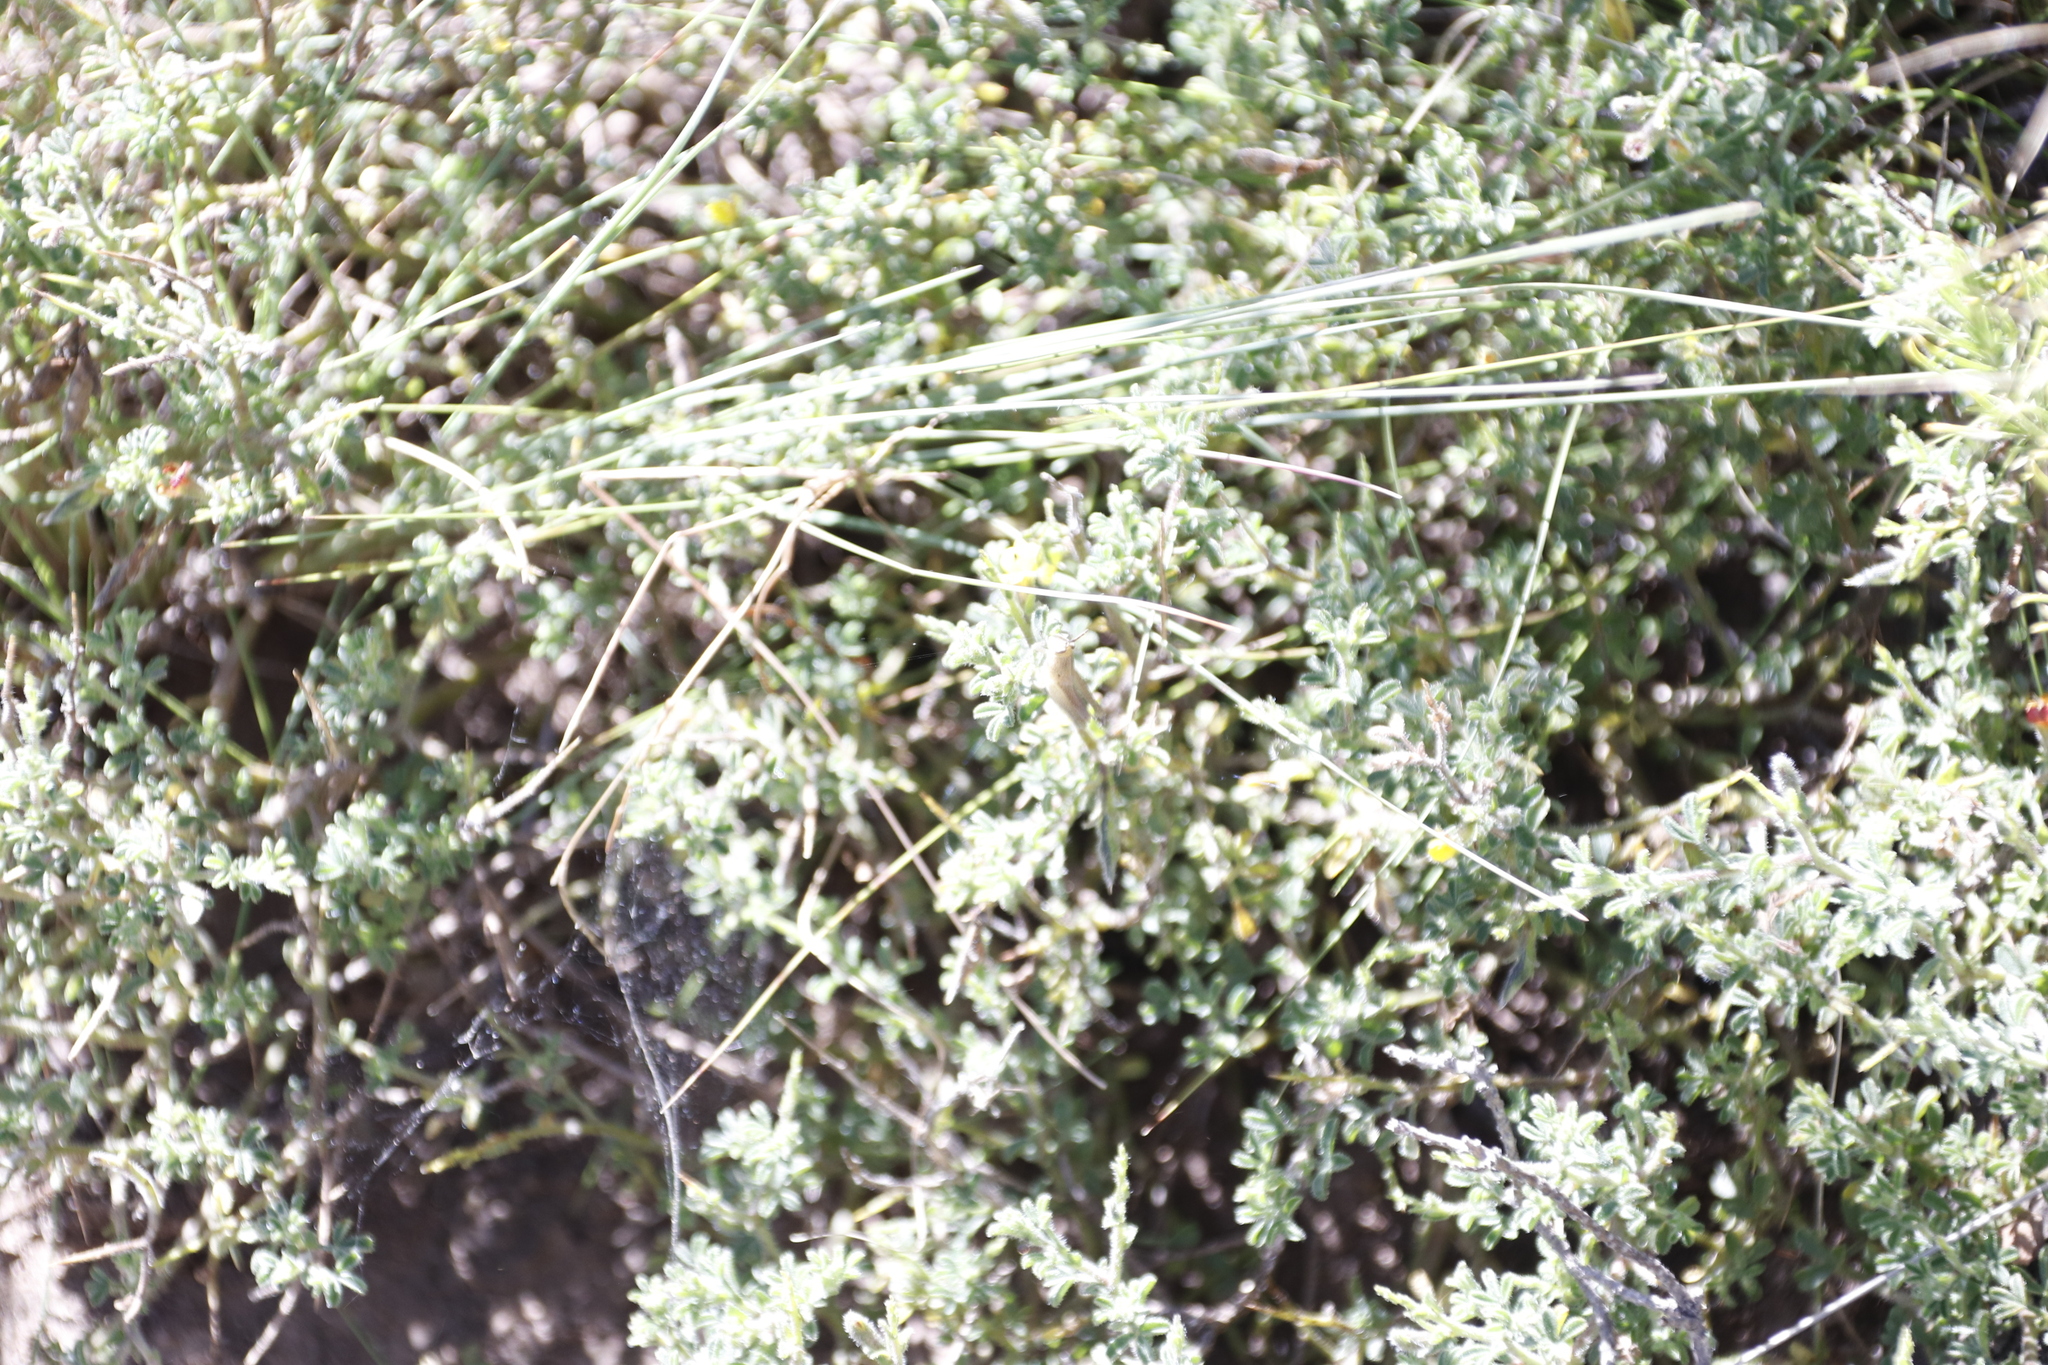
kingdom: Plantae
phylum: Tracheophyta
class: Magnoliopsida
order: Fabales
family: Fabaceae
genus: Melolobium
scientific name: Melolobium microphyllum
